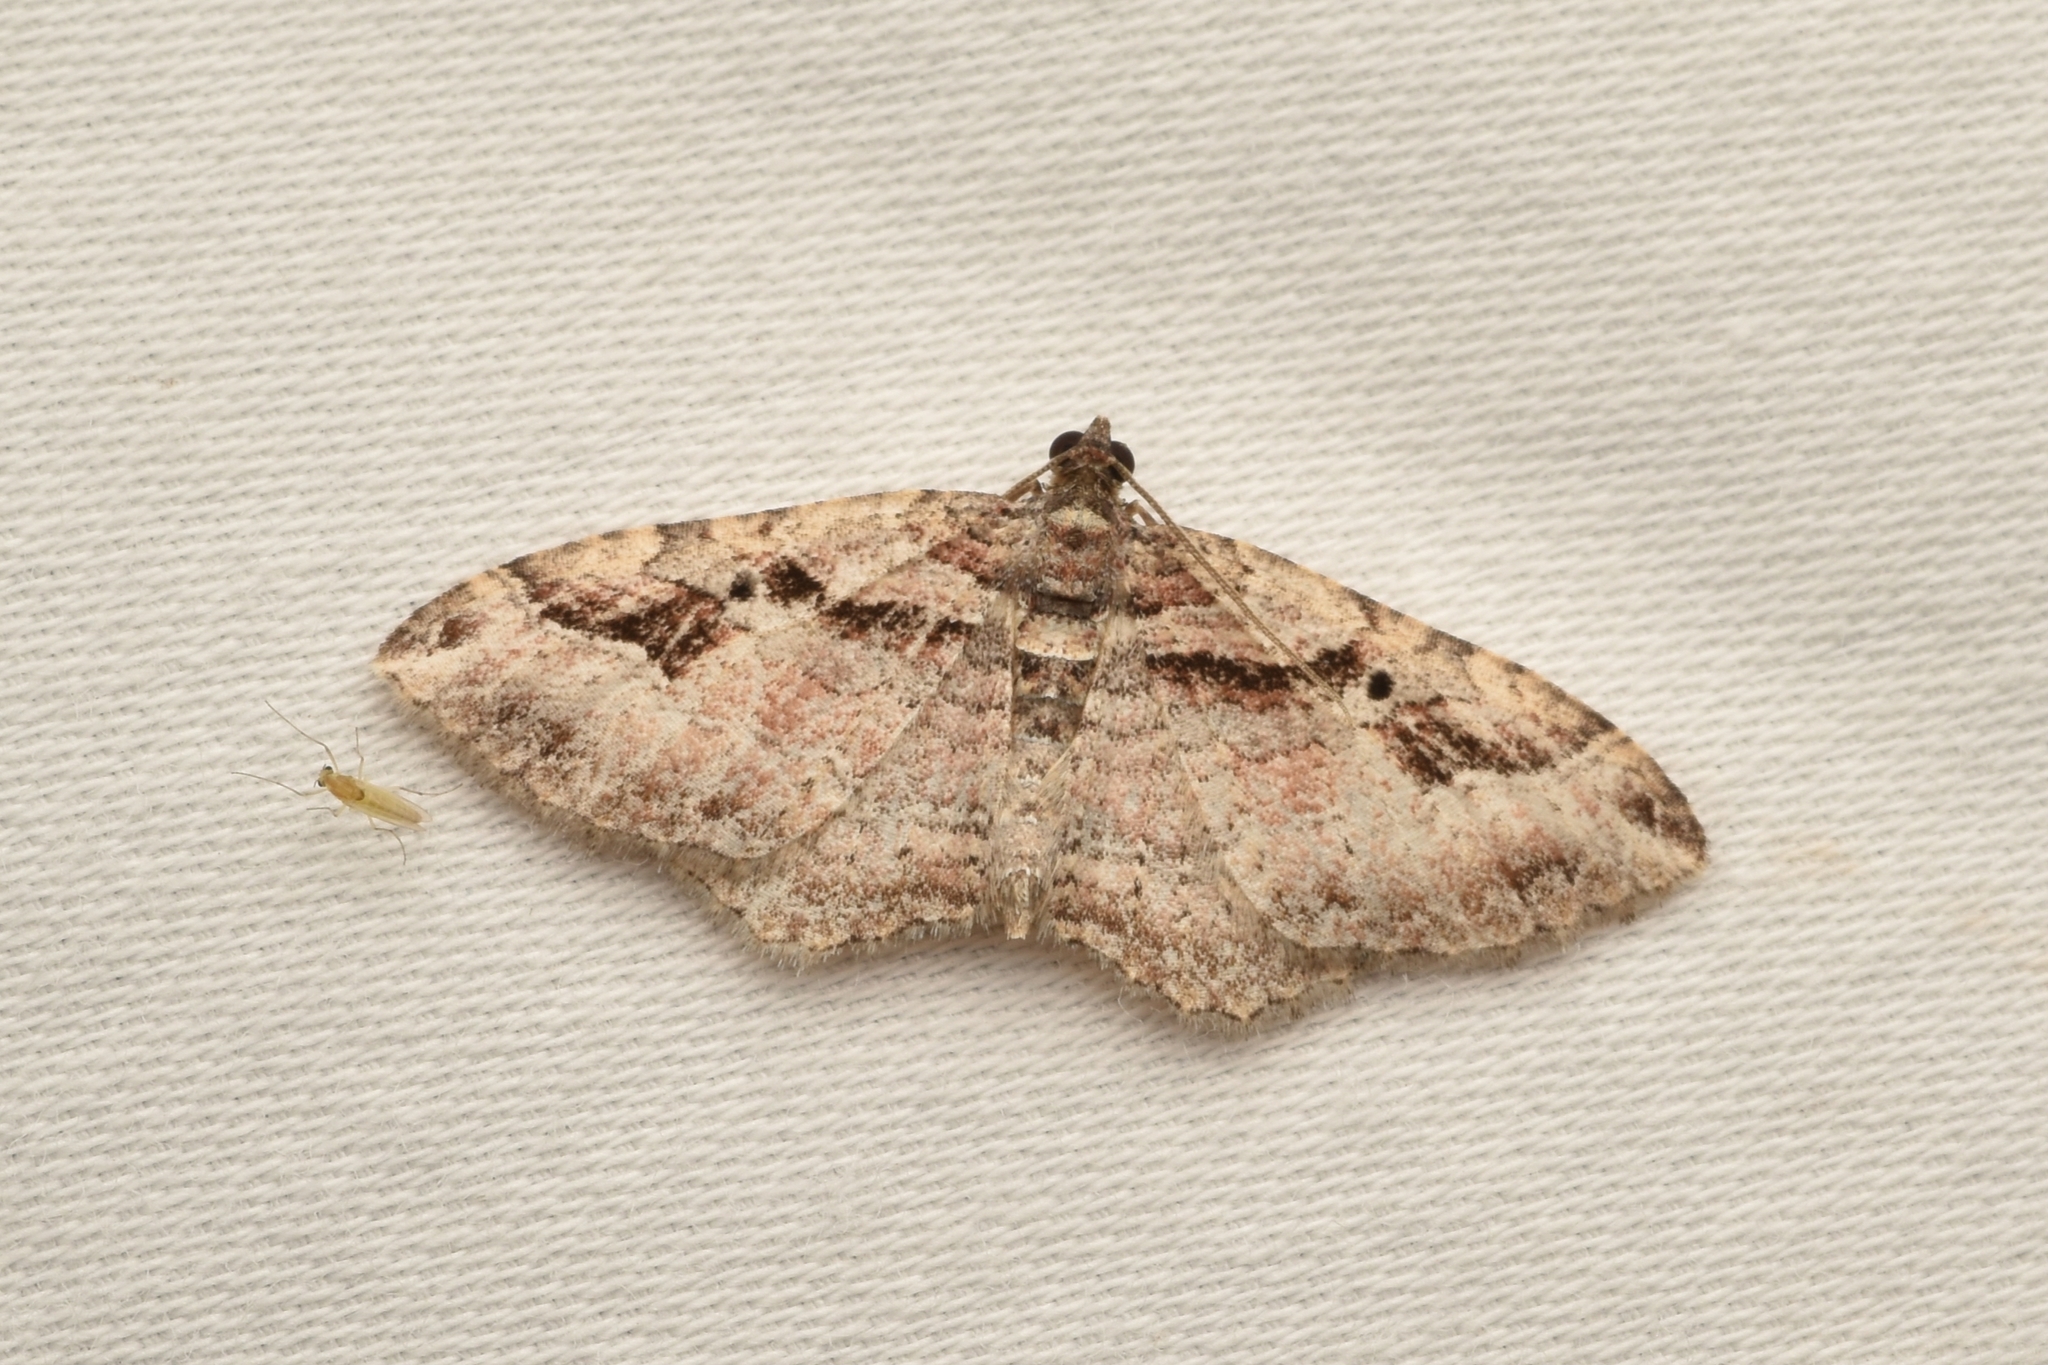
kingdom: Animalia
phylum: Arthropoda
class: Insecta
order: Lepidoptera
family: Geometridae
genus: Costaconvexa
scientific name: Costaconvexa centrostrigaria
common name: Bent-line carpet
